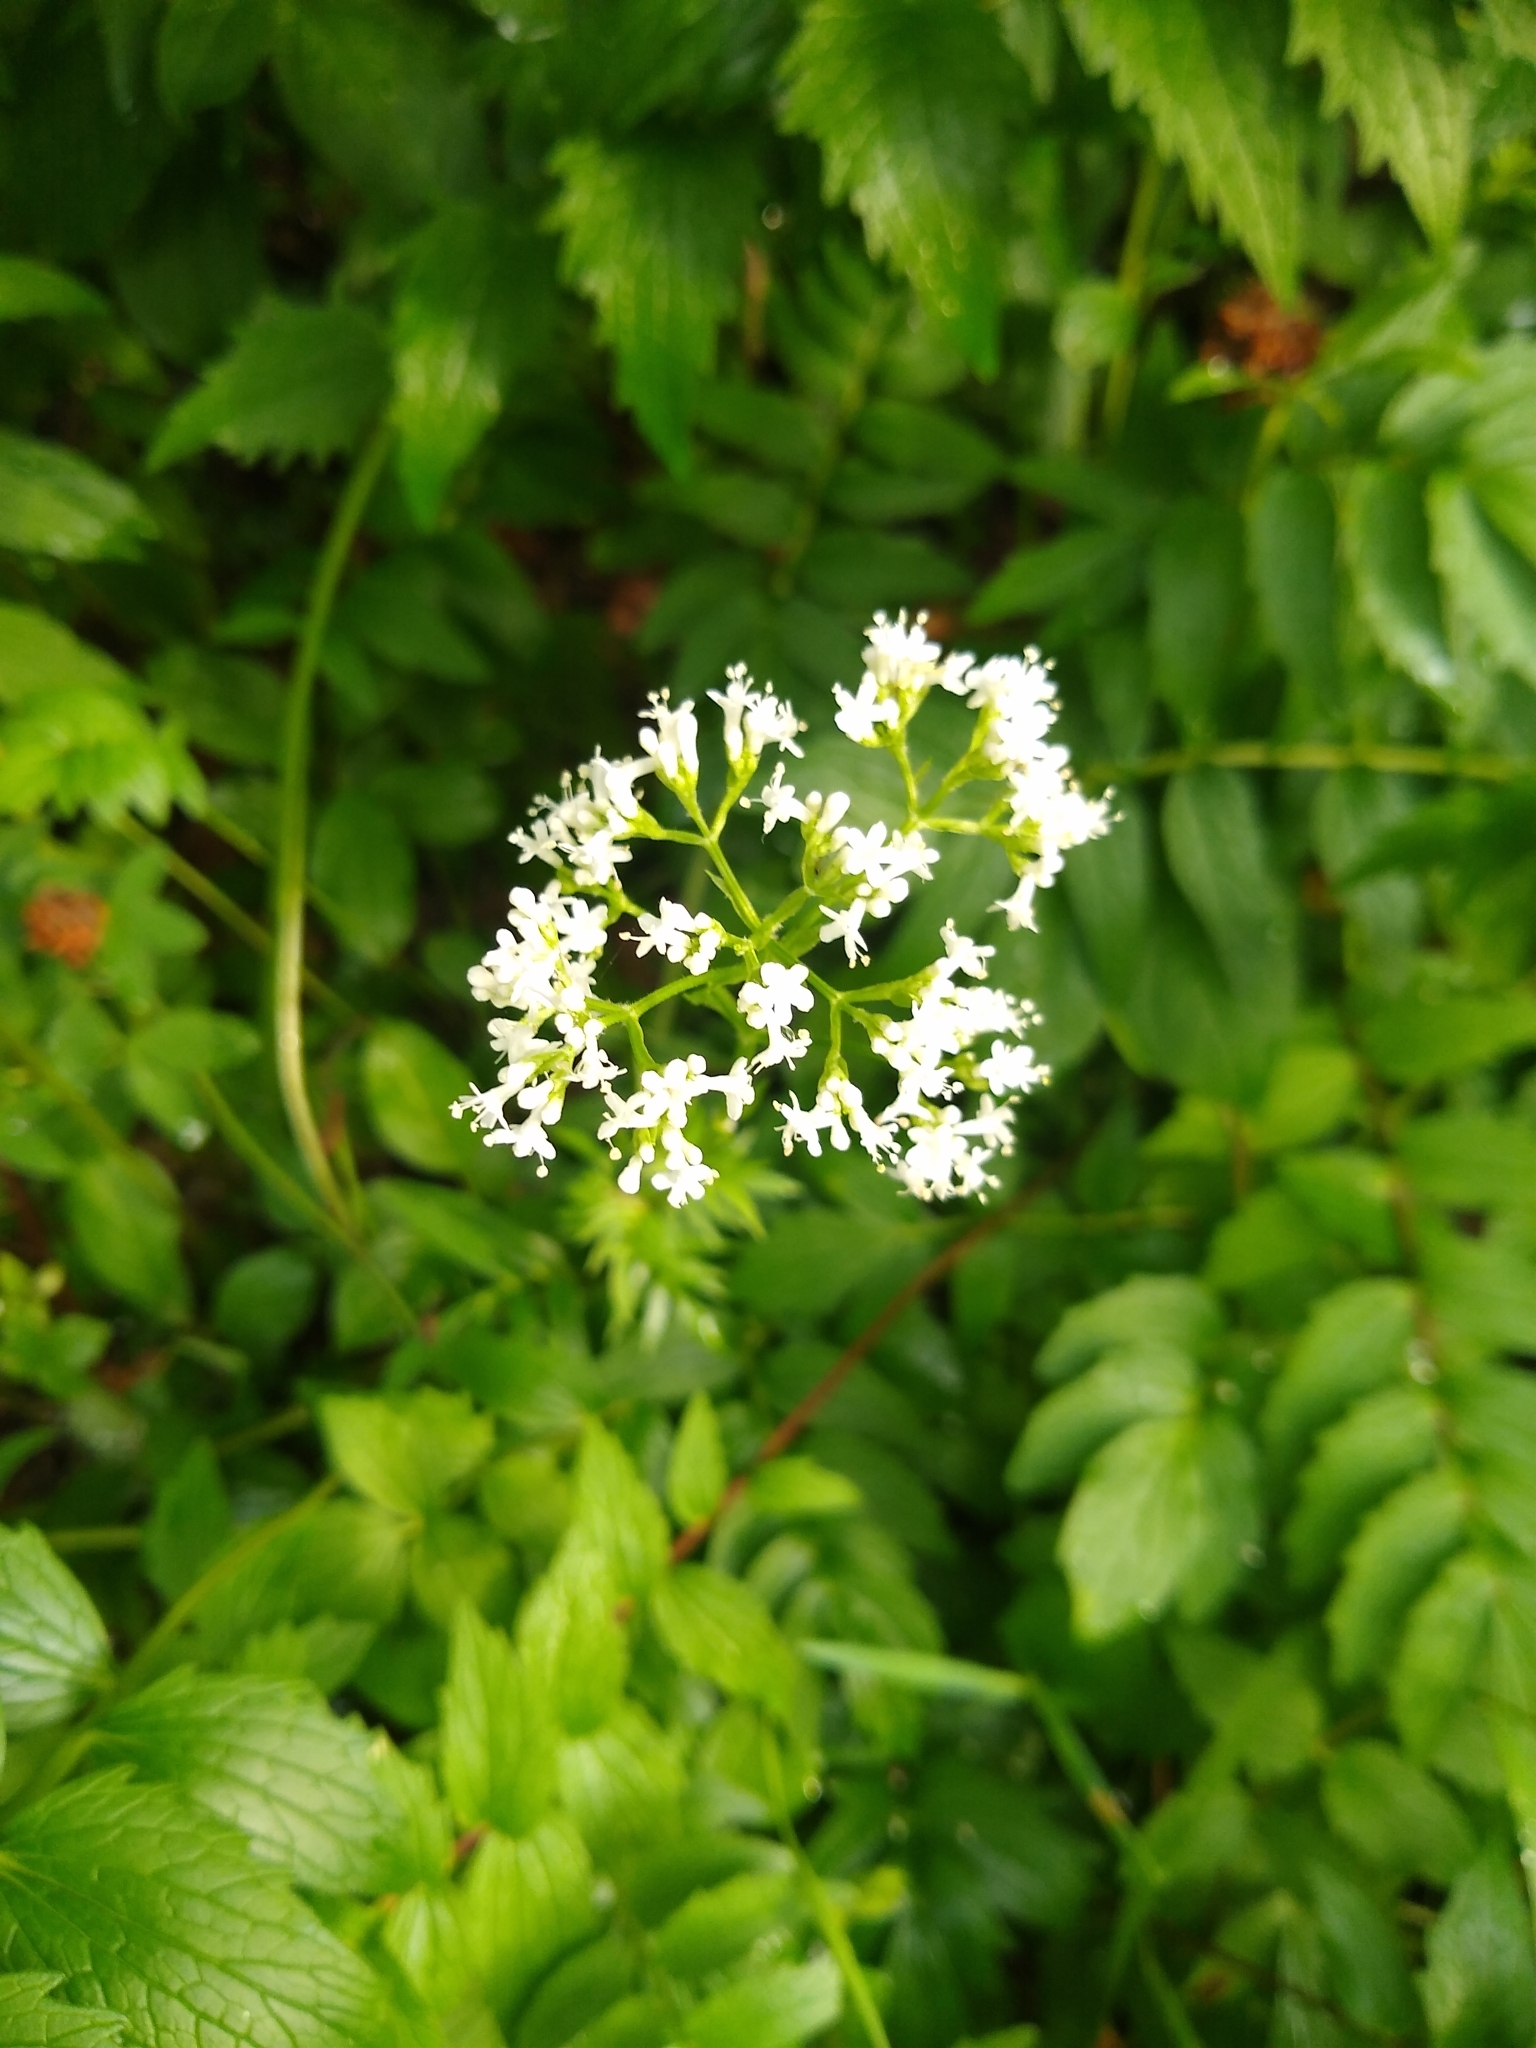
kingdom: Plantae
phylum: Tracheophyta
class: Magnoliopsida
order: Dipsacales
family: Caprifoliaceae
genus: Valeriana
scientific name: Valeriana officinalis
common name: Common valerian
